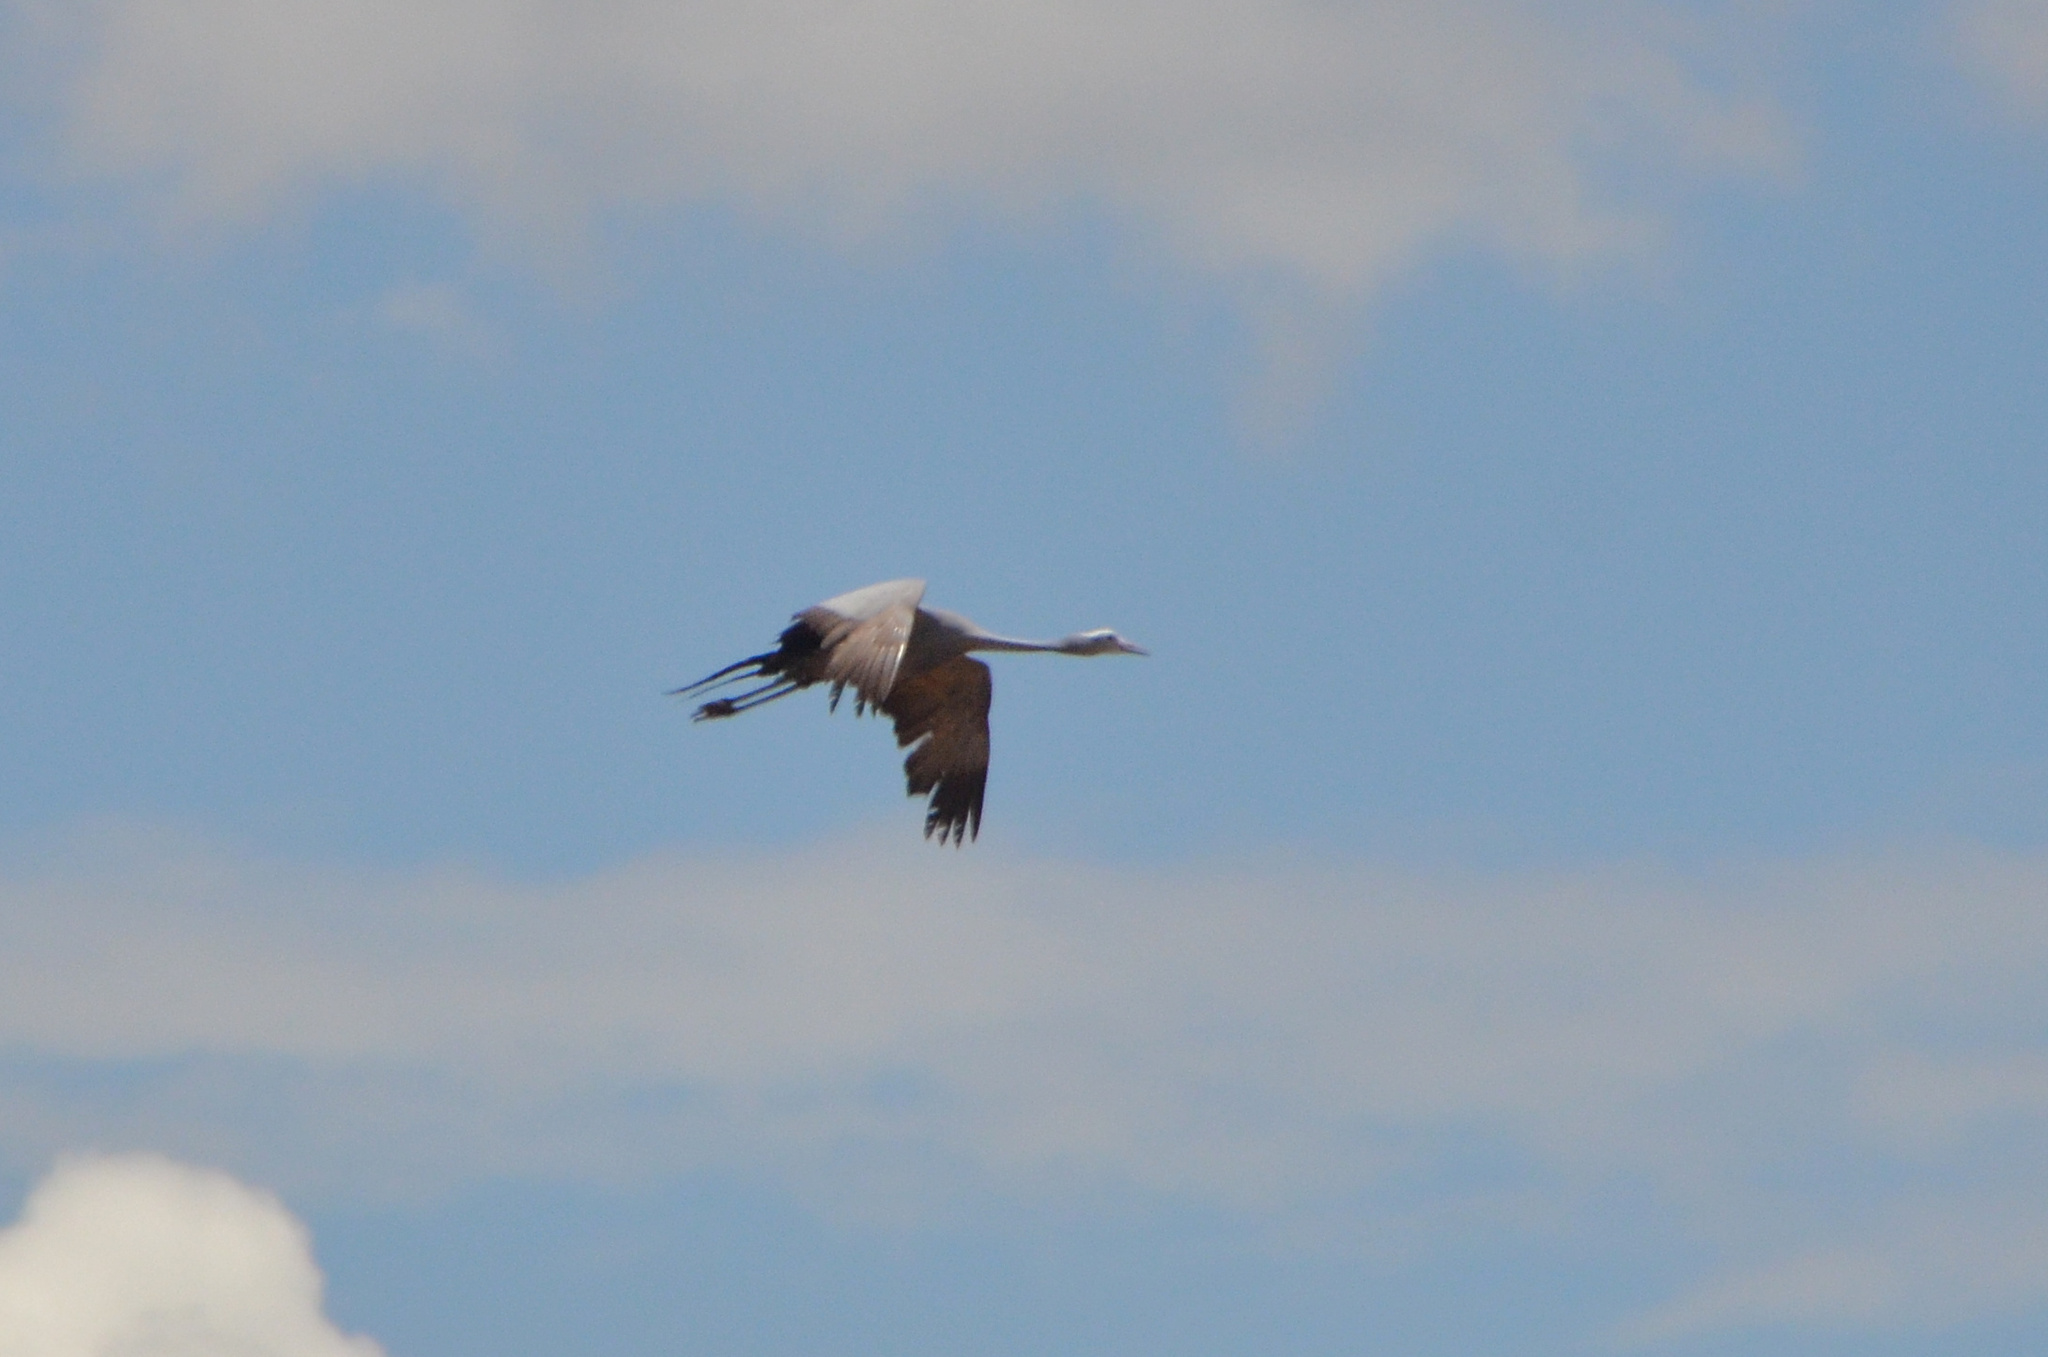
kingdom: Animalia
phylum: Chordata
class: Aves
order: Gruiformes
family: Gruidae
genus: Anthropoides
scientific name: Anthropoides paradiseus
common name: Blue crane
